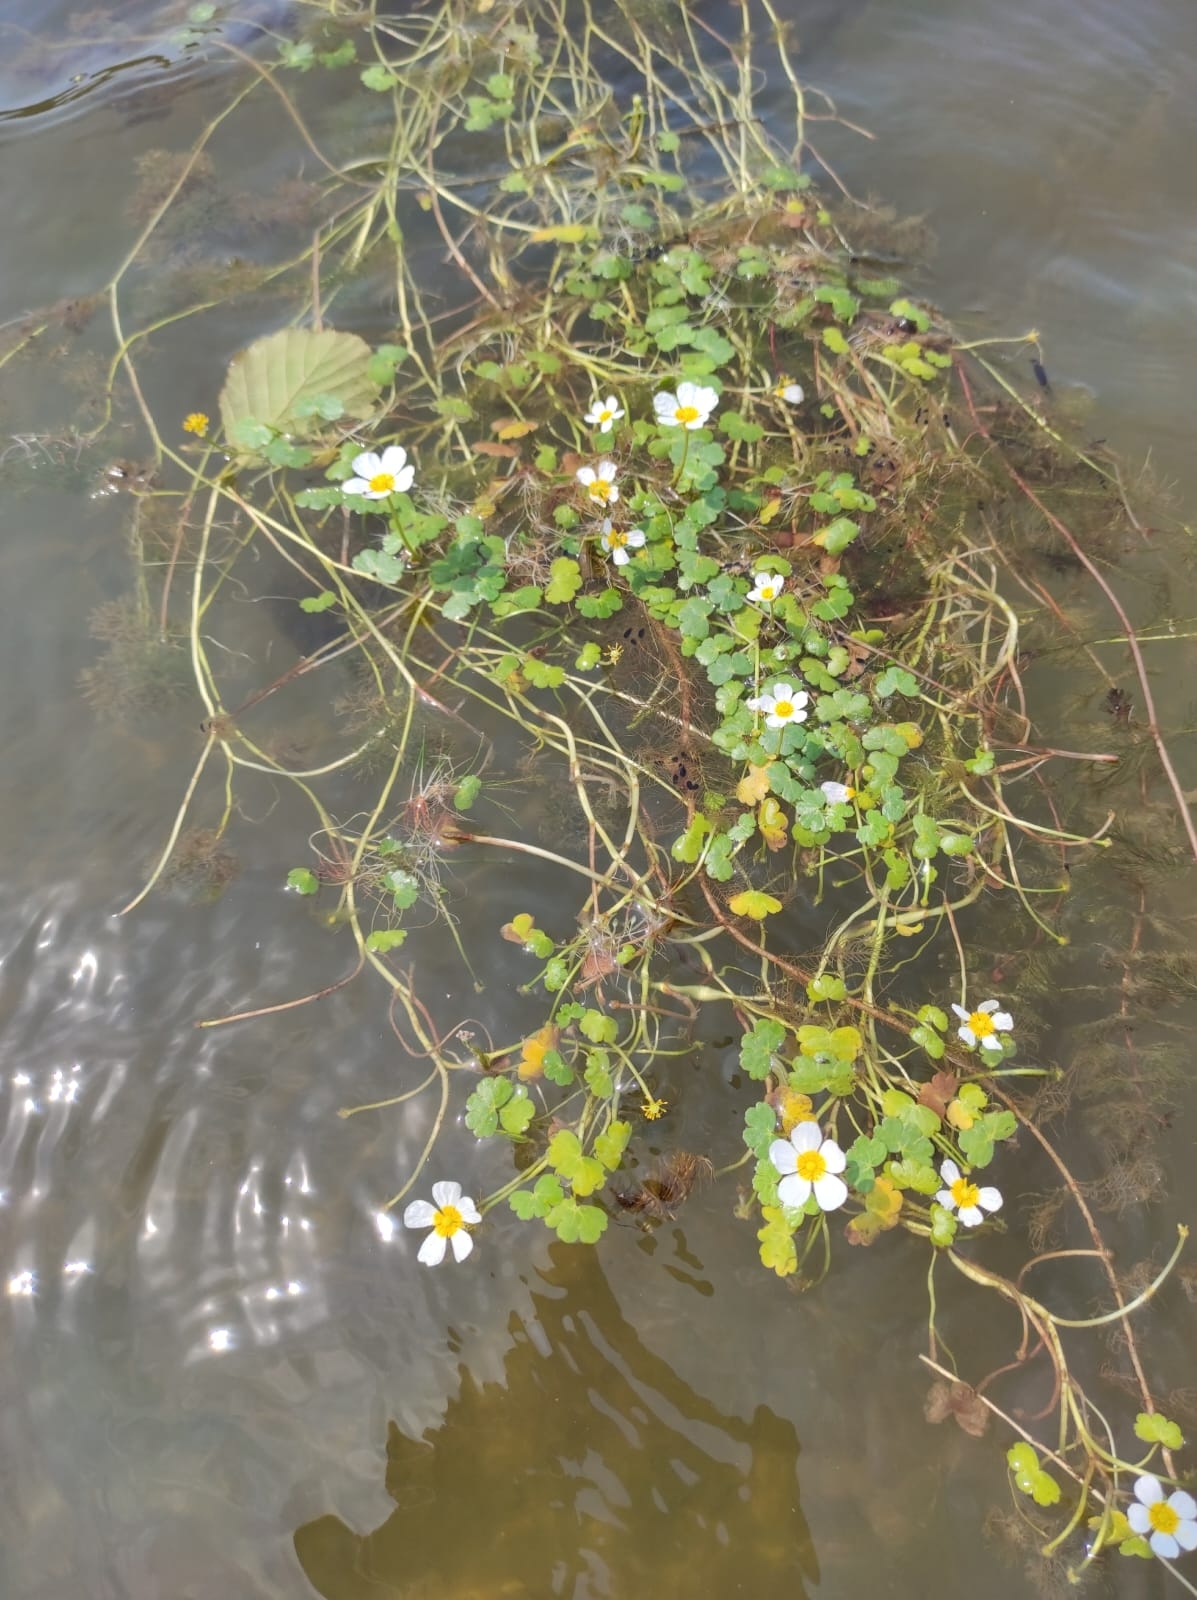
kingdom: Plantae
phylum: Tracheophyta
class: Magnoliopsida
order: Ranunculales
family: Ranunculaceae
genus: Ranunculus
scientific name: Ranunculus peltatus
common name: Pond water-crowfoot
